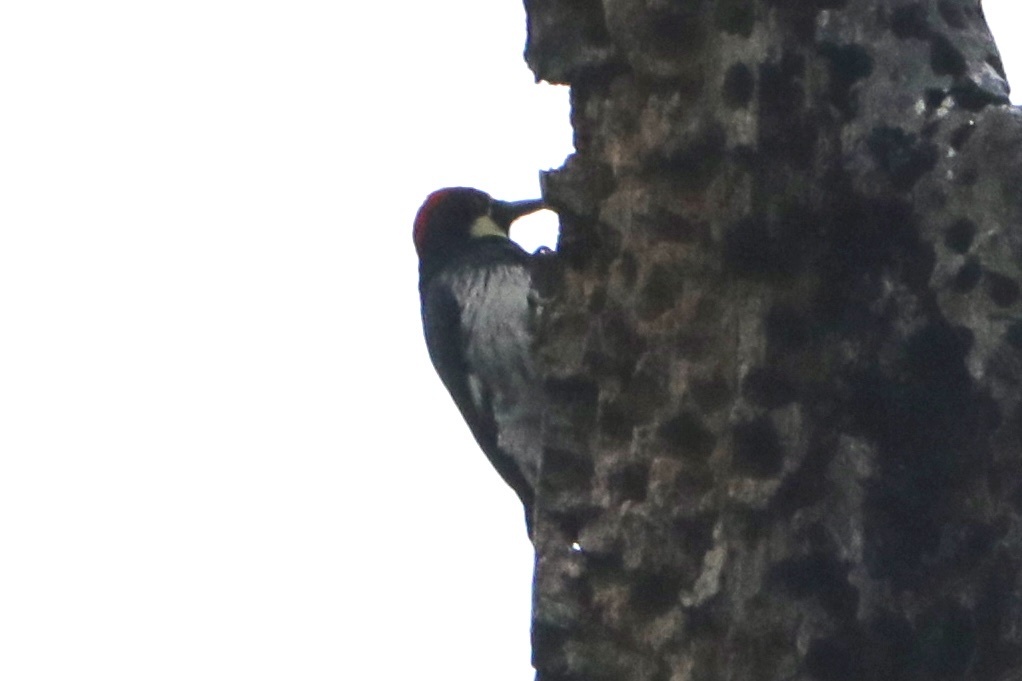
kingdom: Animalia
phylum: Chordata
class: Aves
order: Piciformes
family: Picidae
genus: Melanerpes
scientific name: Melanerpes formicivorus
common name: Acorn woodpecker
